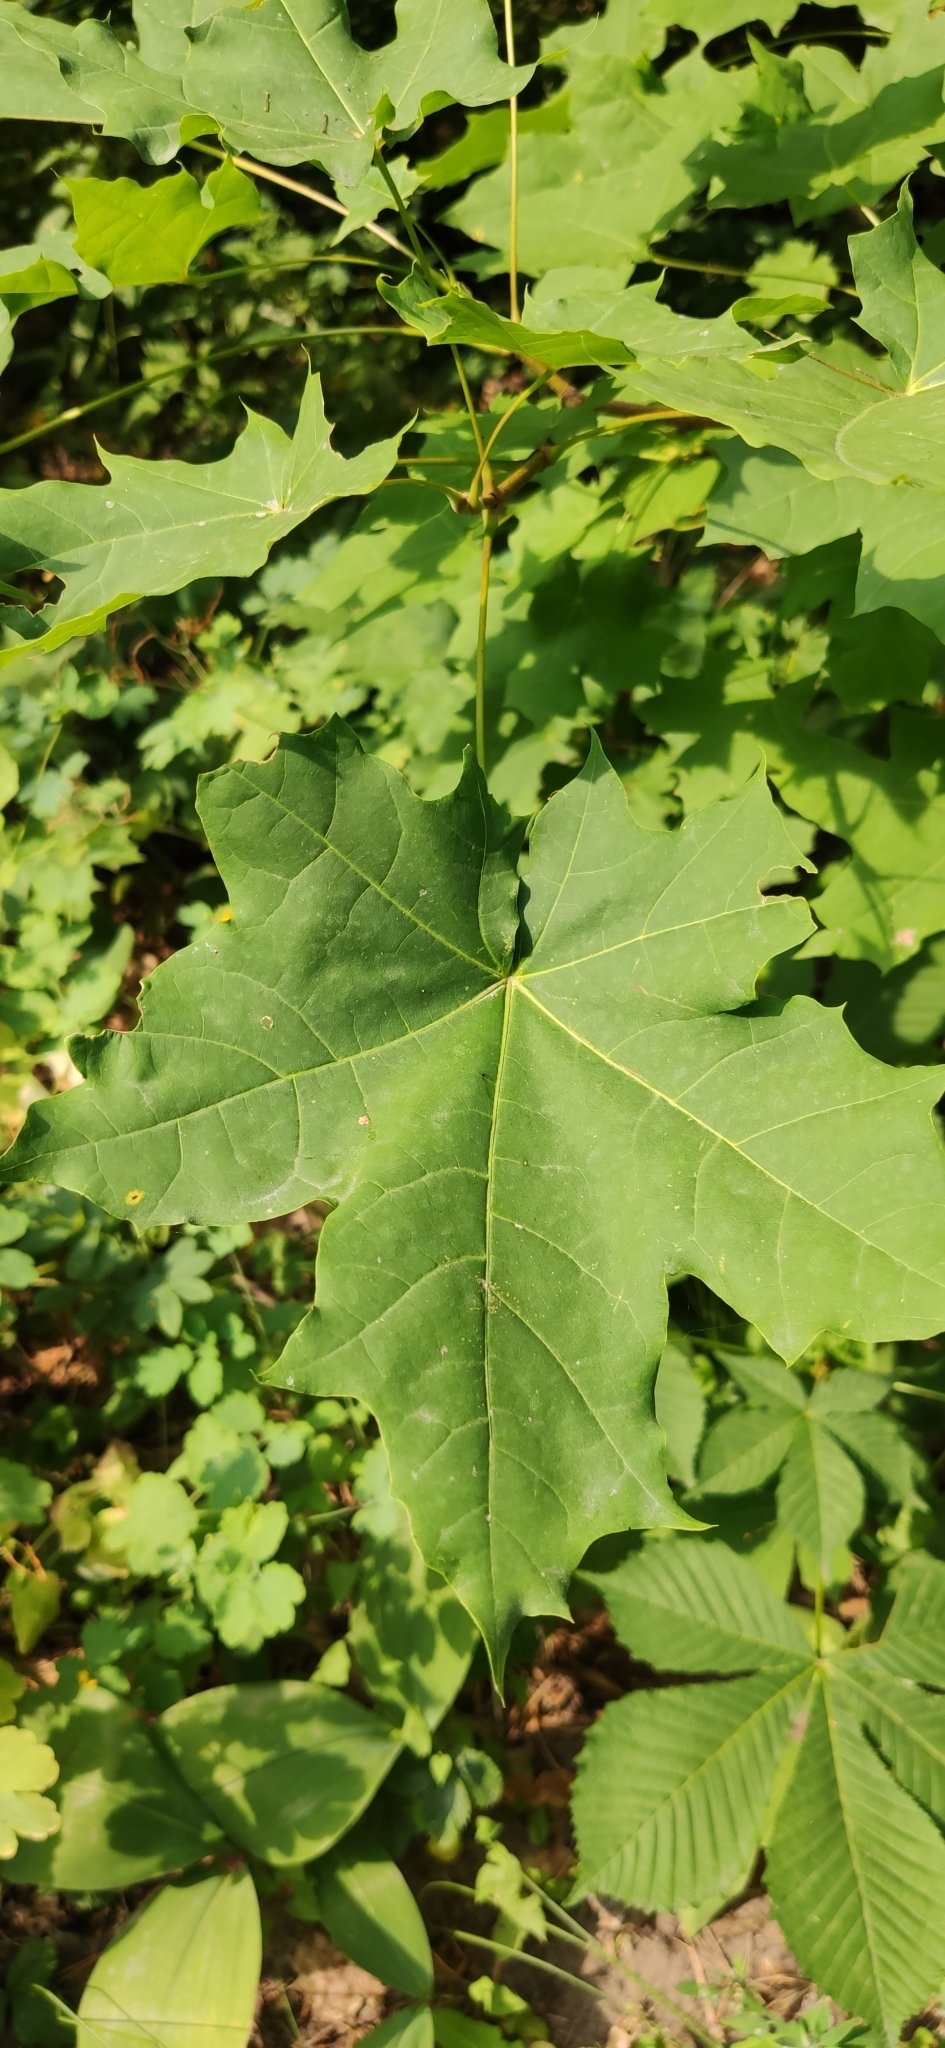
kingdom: Plantae
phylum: Tracheophyta
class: Magnoliopsida
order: Sapindales
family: Sapindaceae
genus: Acer
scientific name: Acer platanoides
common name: Norway maple
